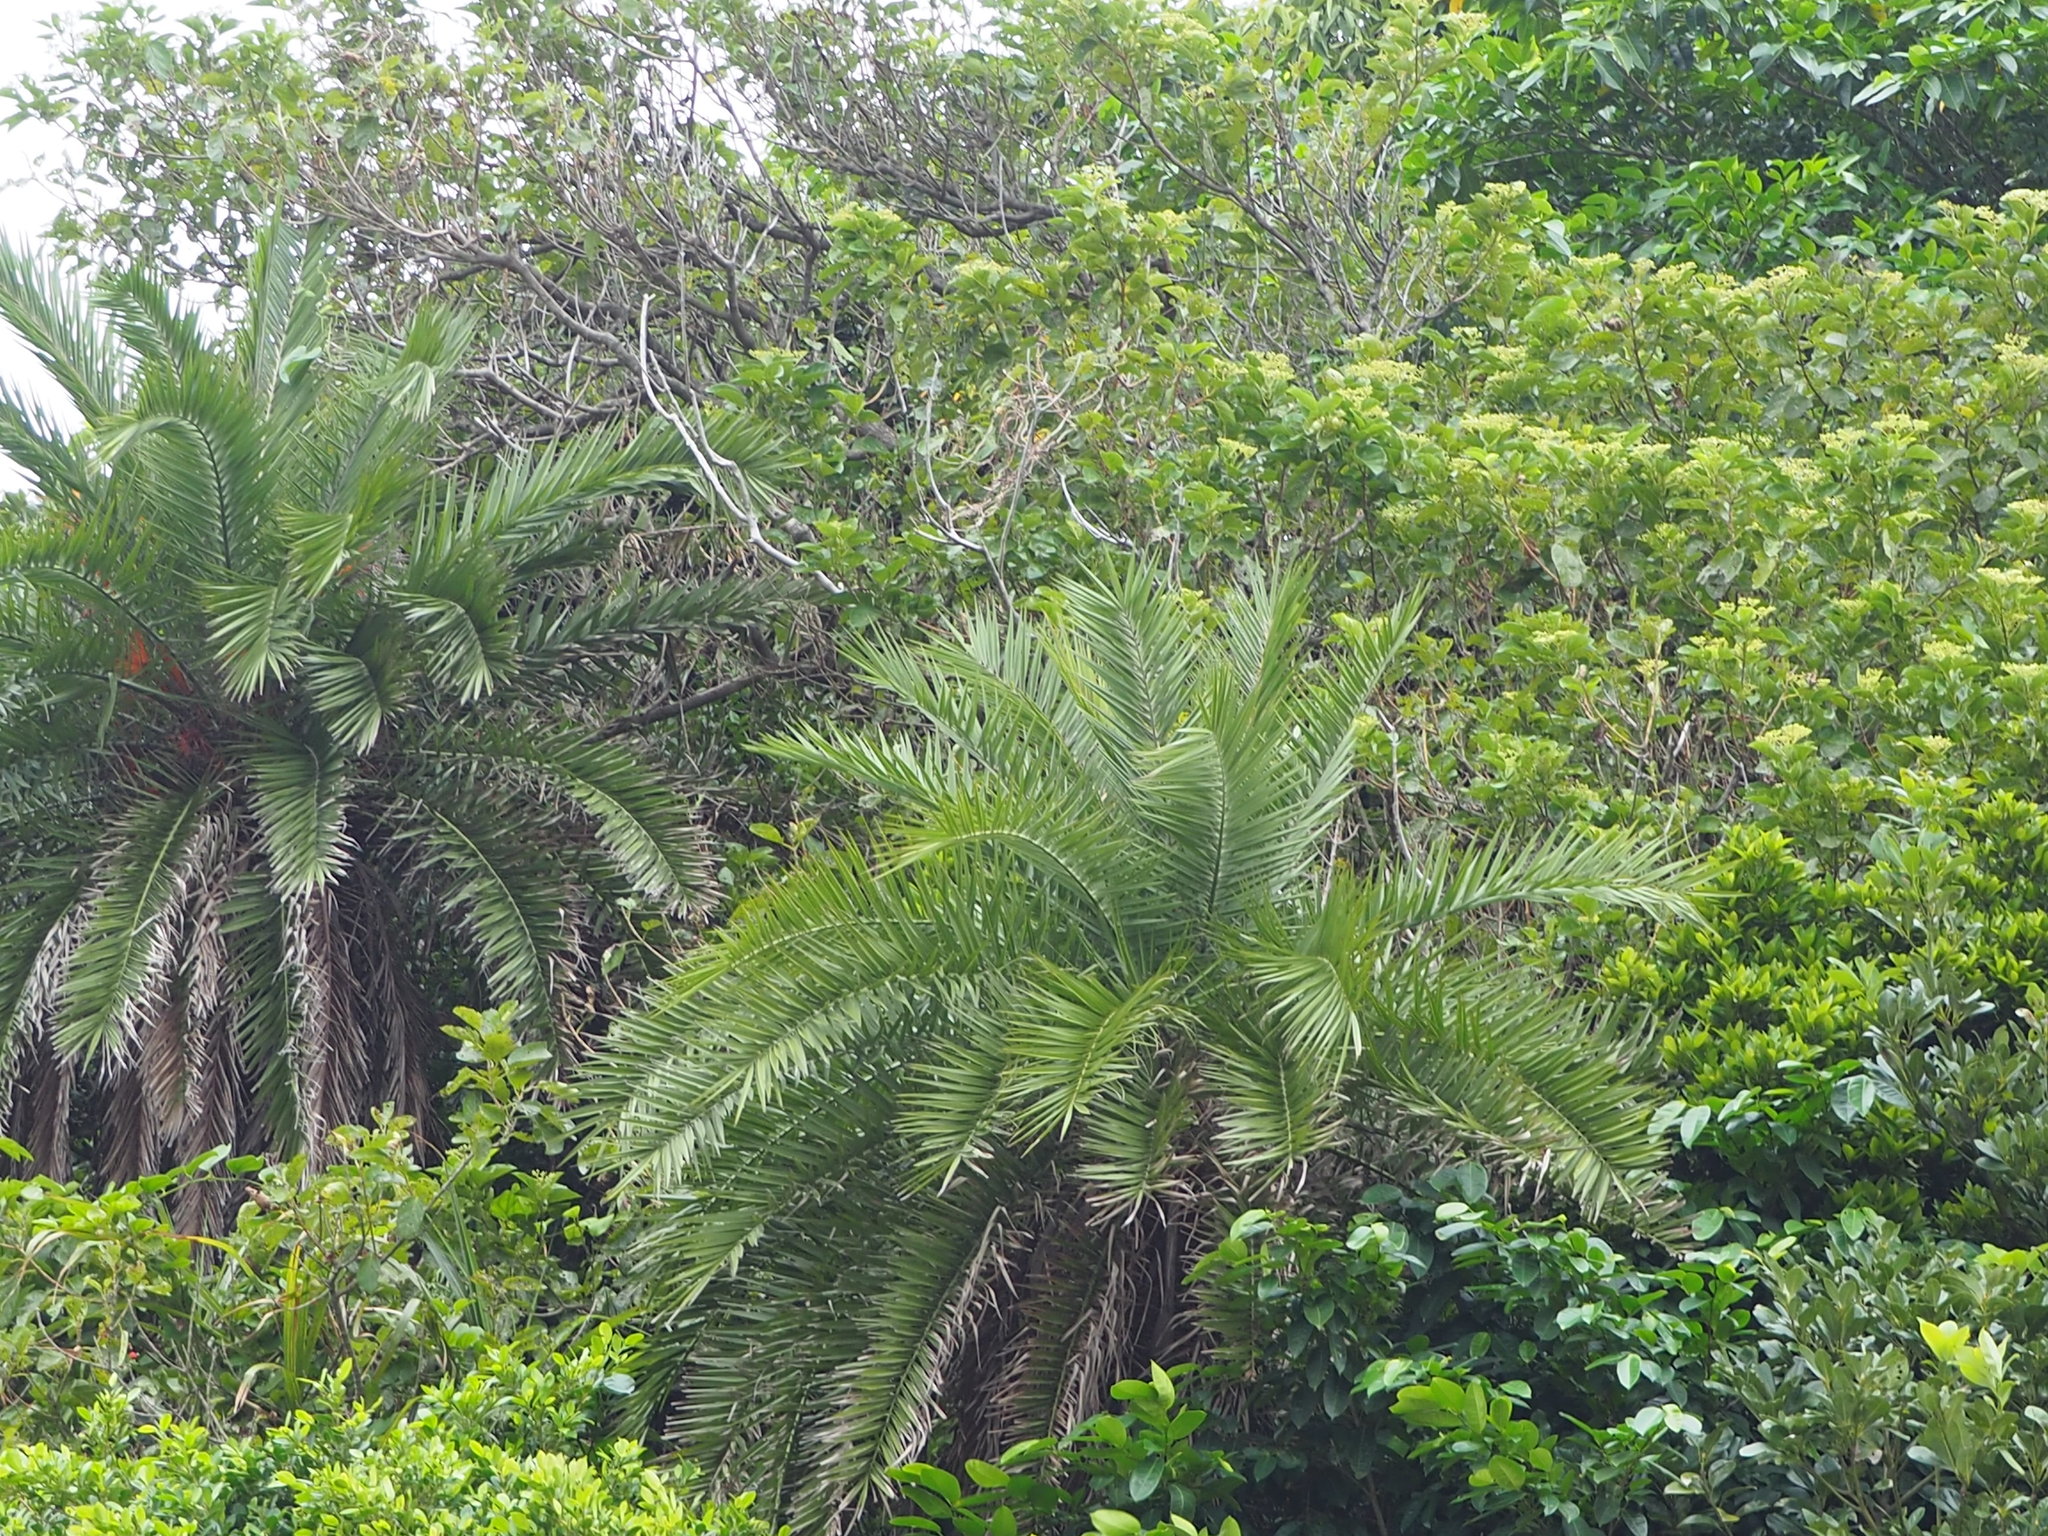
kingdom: Plantae
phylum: Tracheophyta
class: Liliopsida
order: Arecales
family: Arecaceae
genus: Phoenix
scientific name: Phoenix loureiroi
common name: Loureiro's palm
